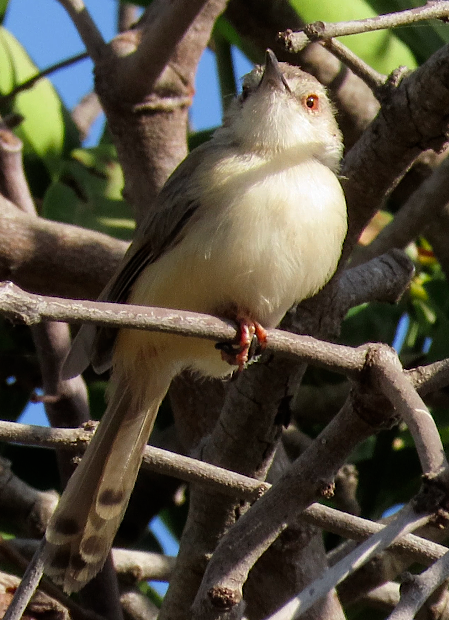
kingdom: Animalia
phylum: Chordata
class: Aves
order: Passeriformes
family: Cisticolidae
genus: Prinia
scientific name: Prinia subflava
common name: Tawny-flanked prinia
